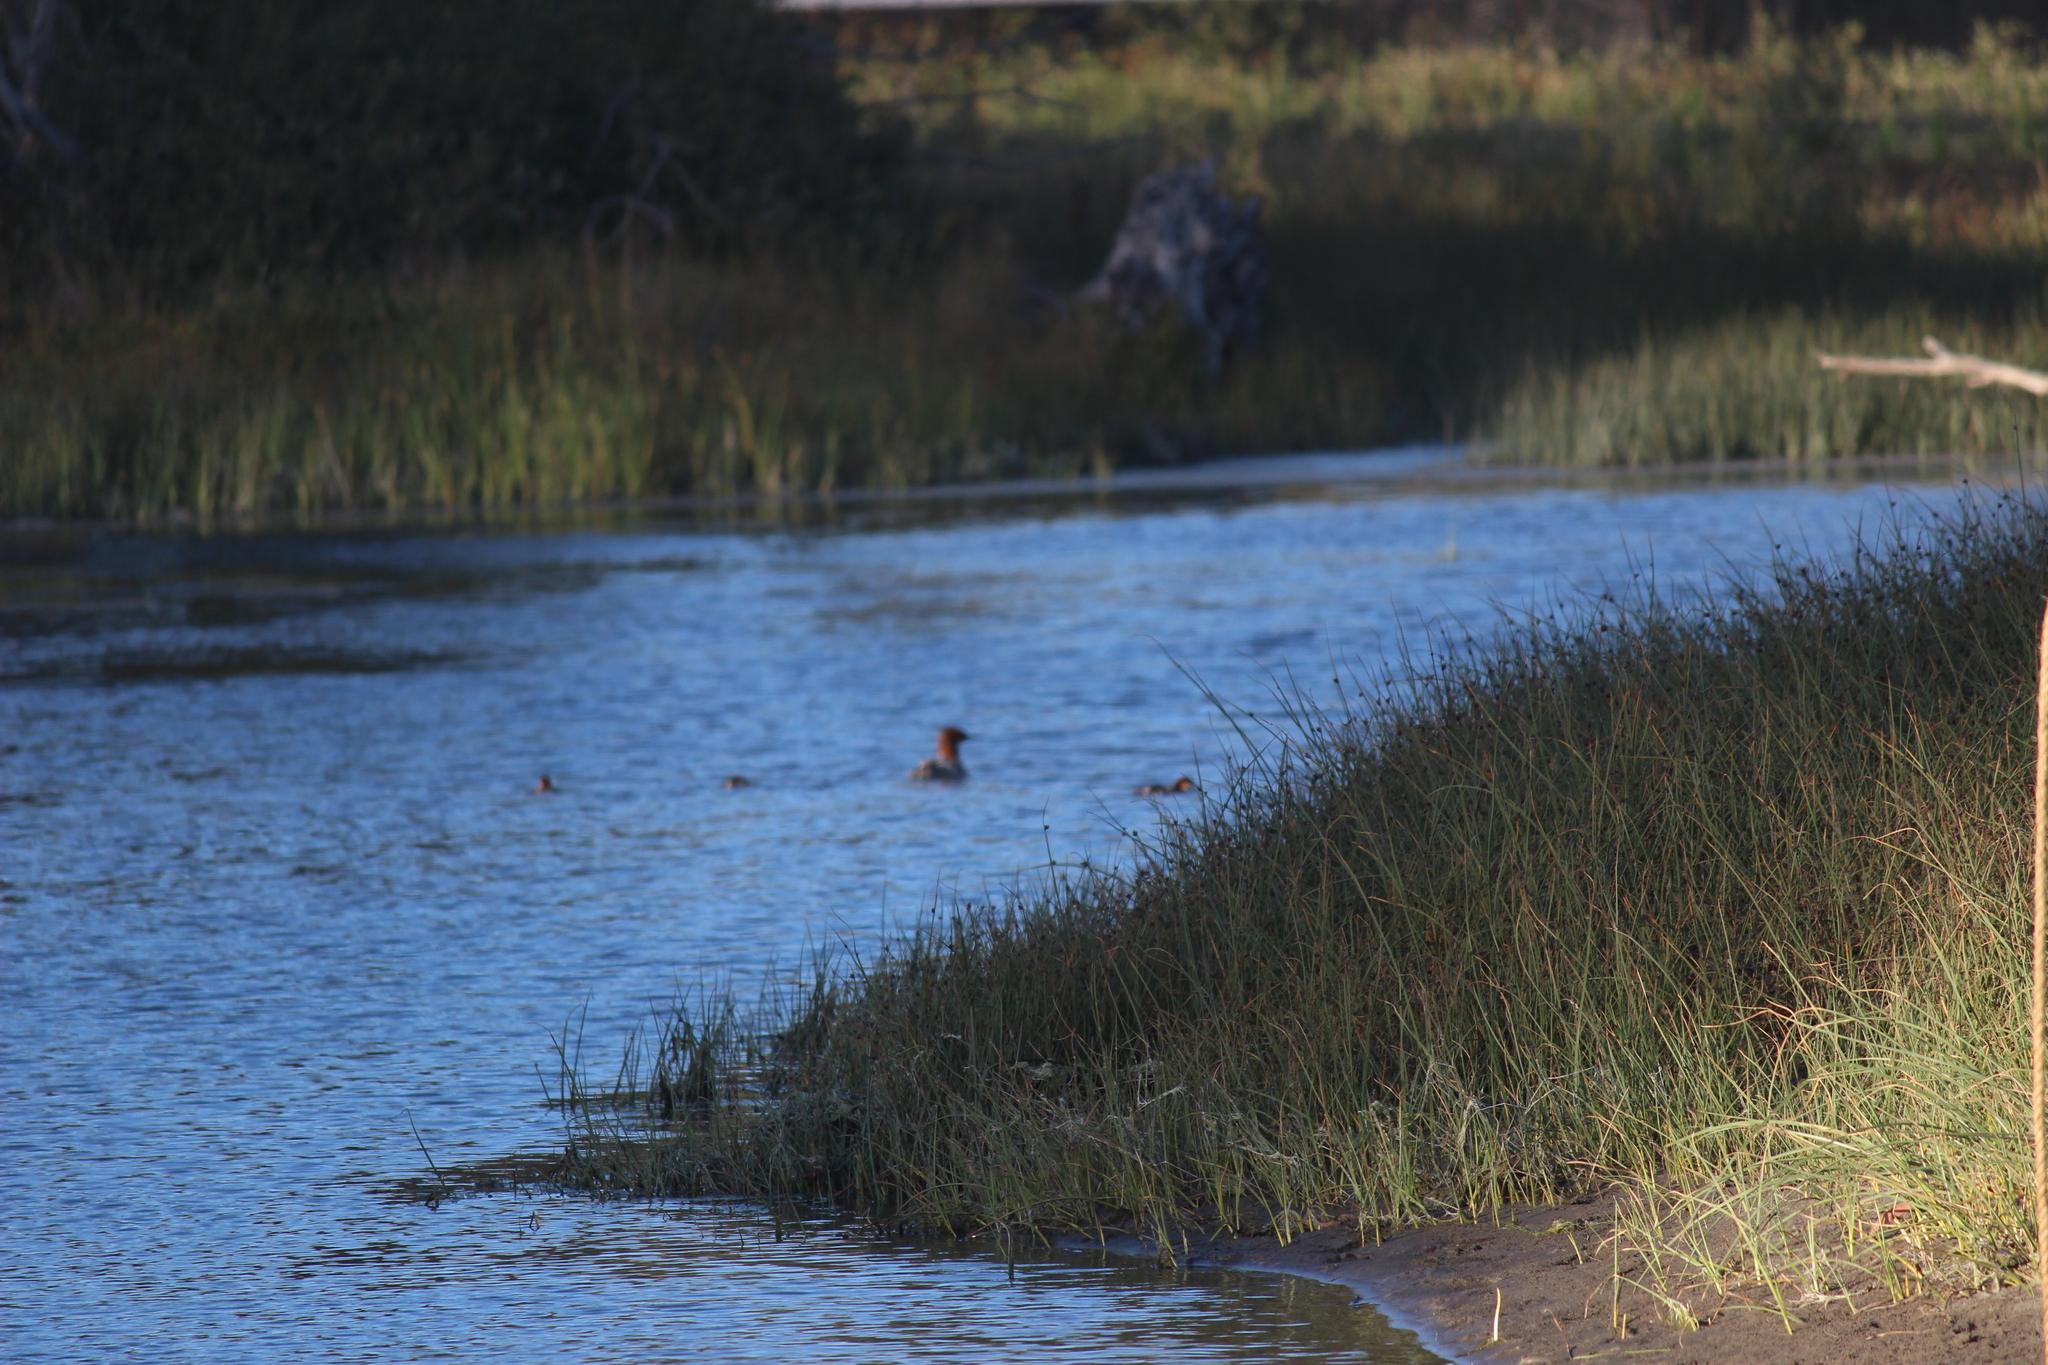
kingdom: Animalia
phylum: Chordata
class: Aves
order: Anseriformes
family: Anatidae
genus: Mergus
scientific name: Mergus merganser
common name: Common merganser
